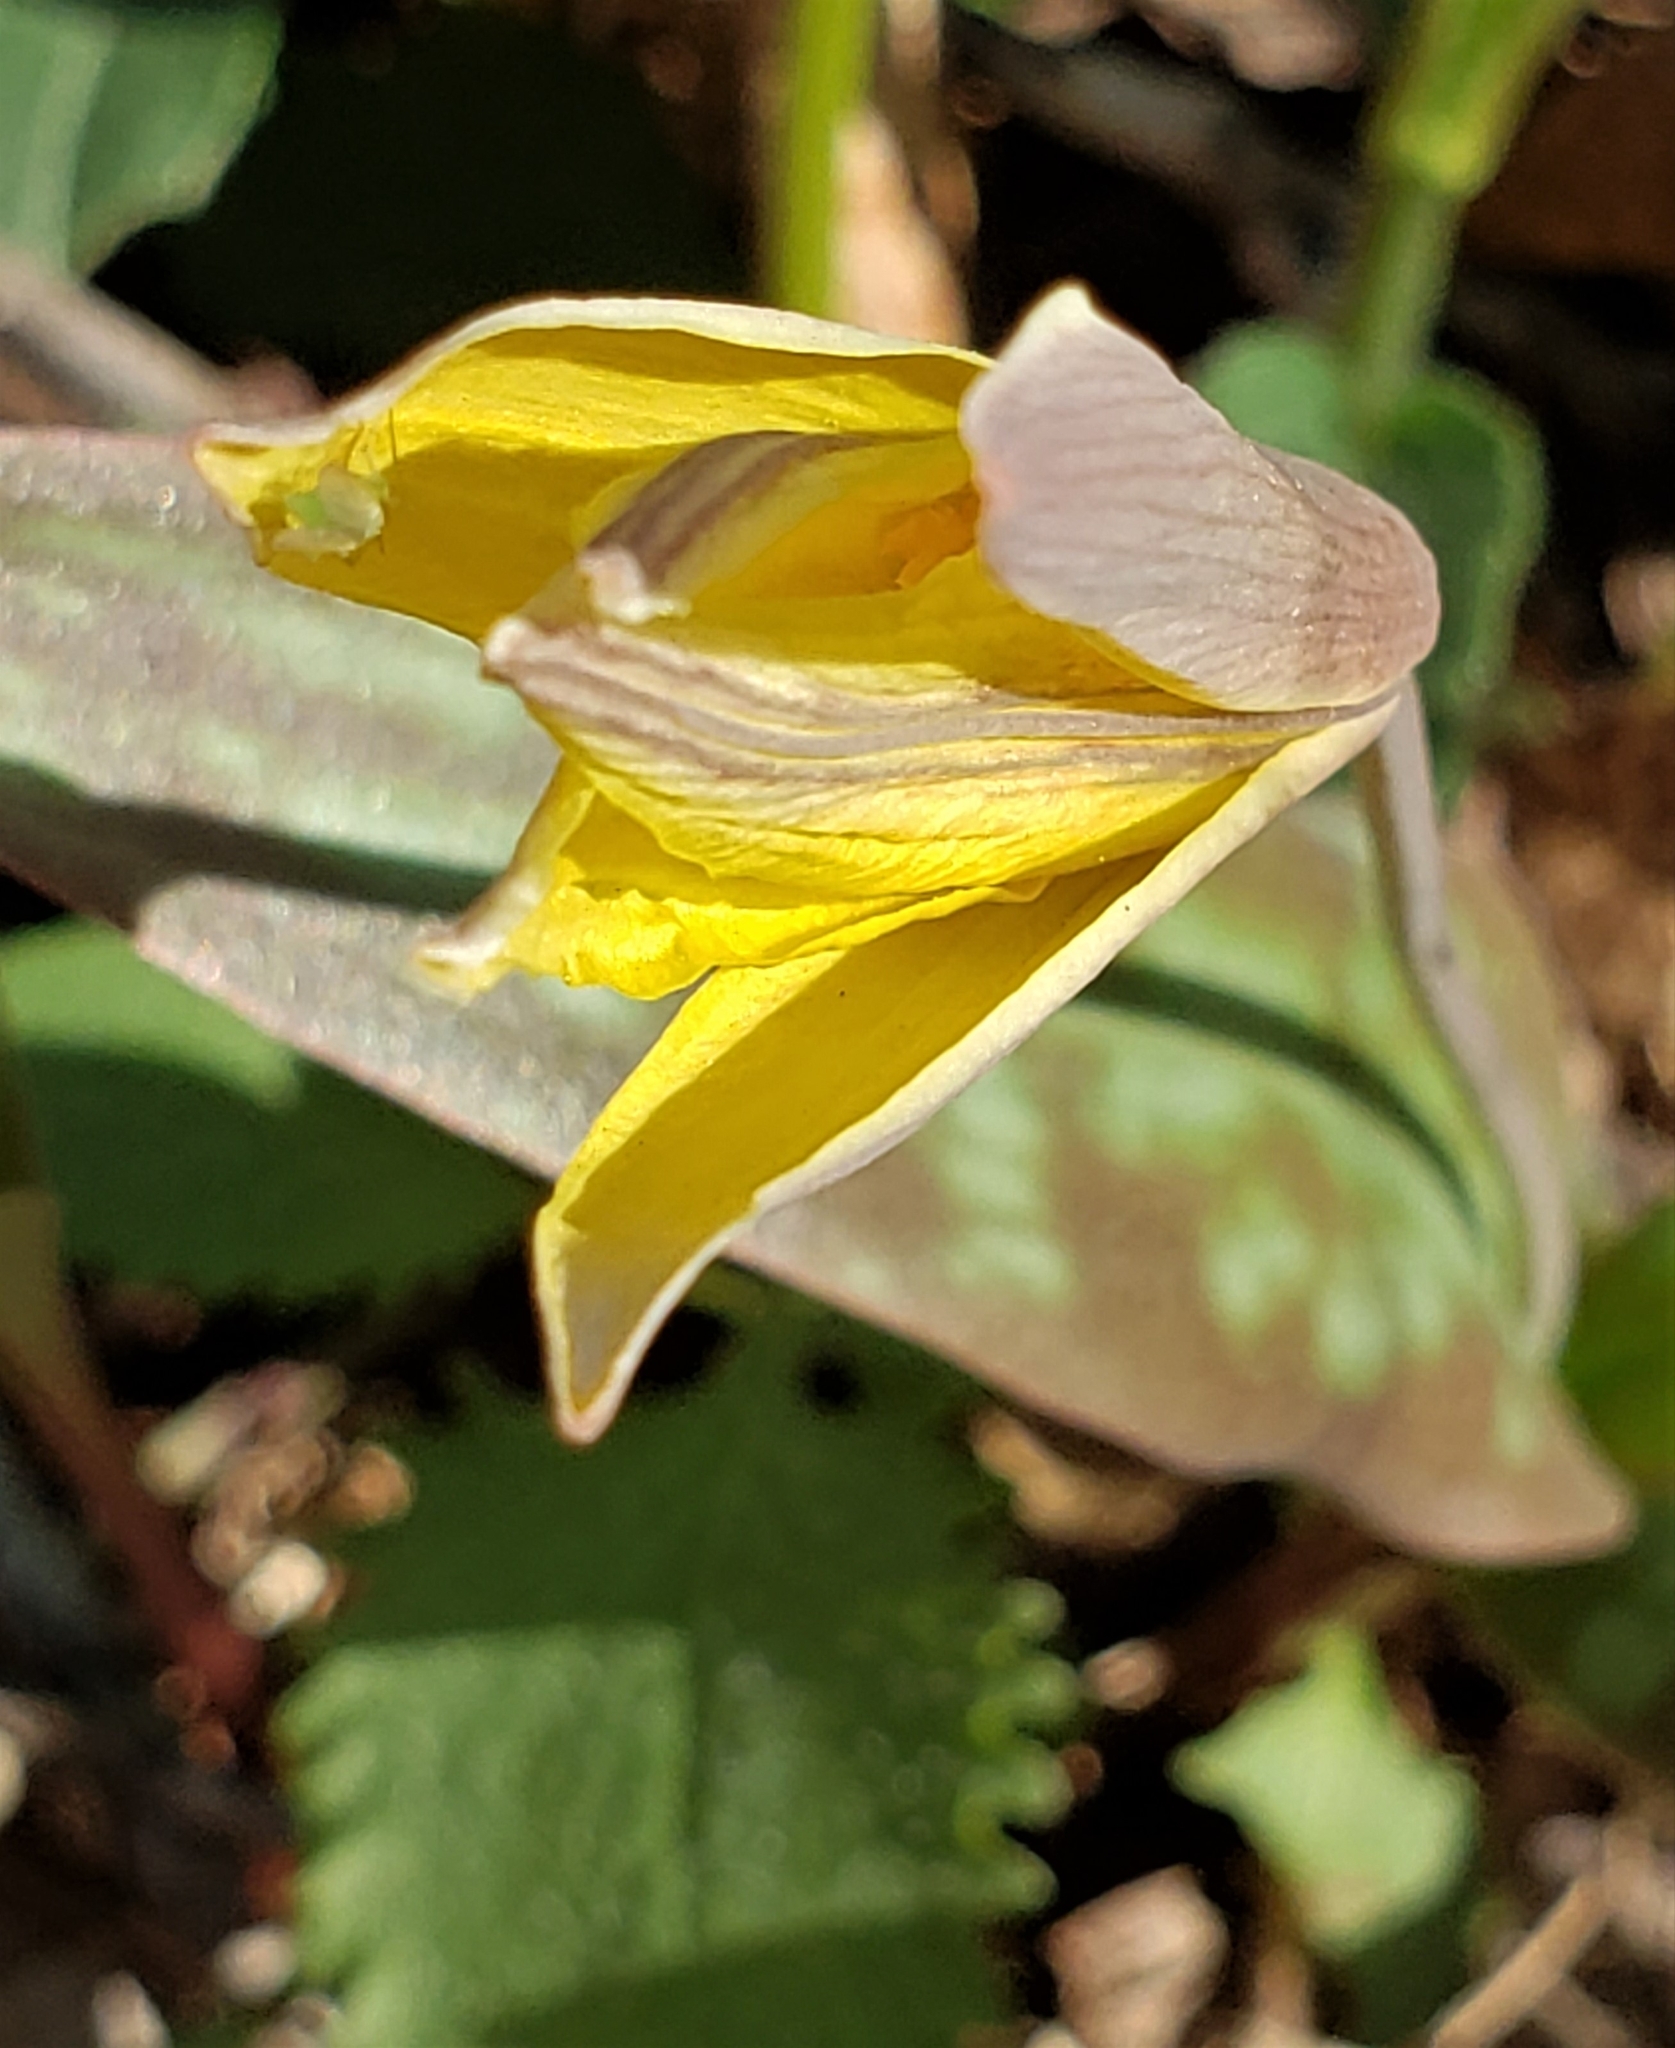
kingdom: Plantae
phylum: Tracheophyta
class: Liliopsida
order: Liliales
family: Liliaceae
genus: Erythronium
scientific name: Erythronium rostratum
